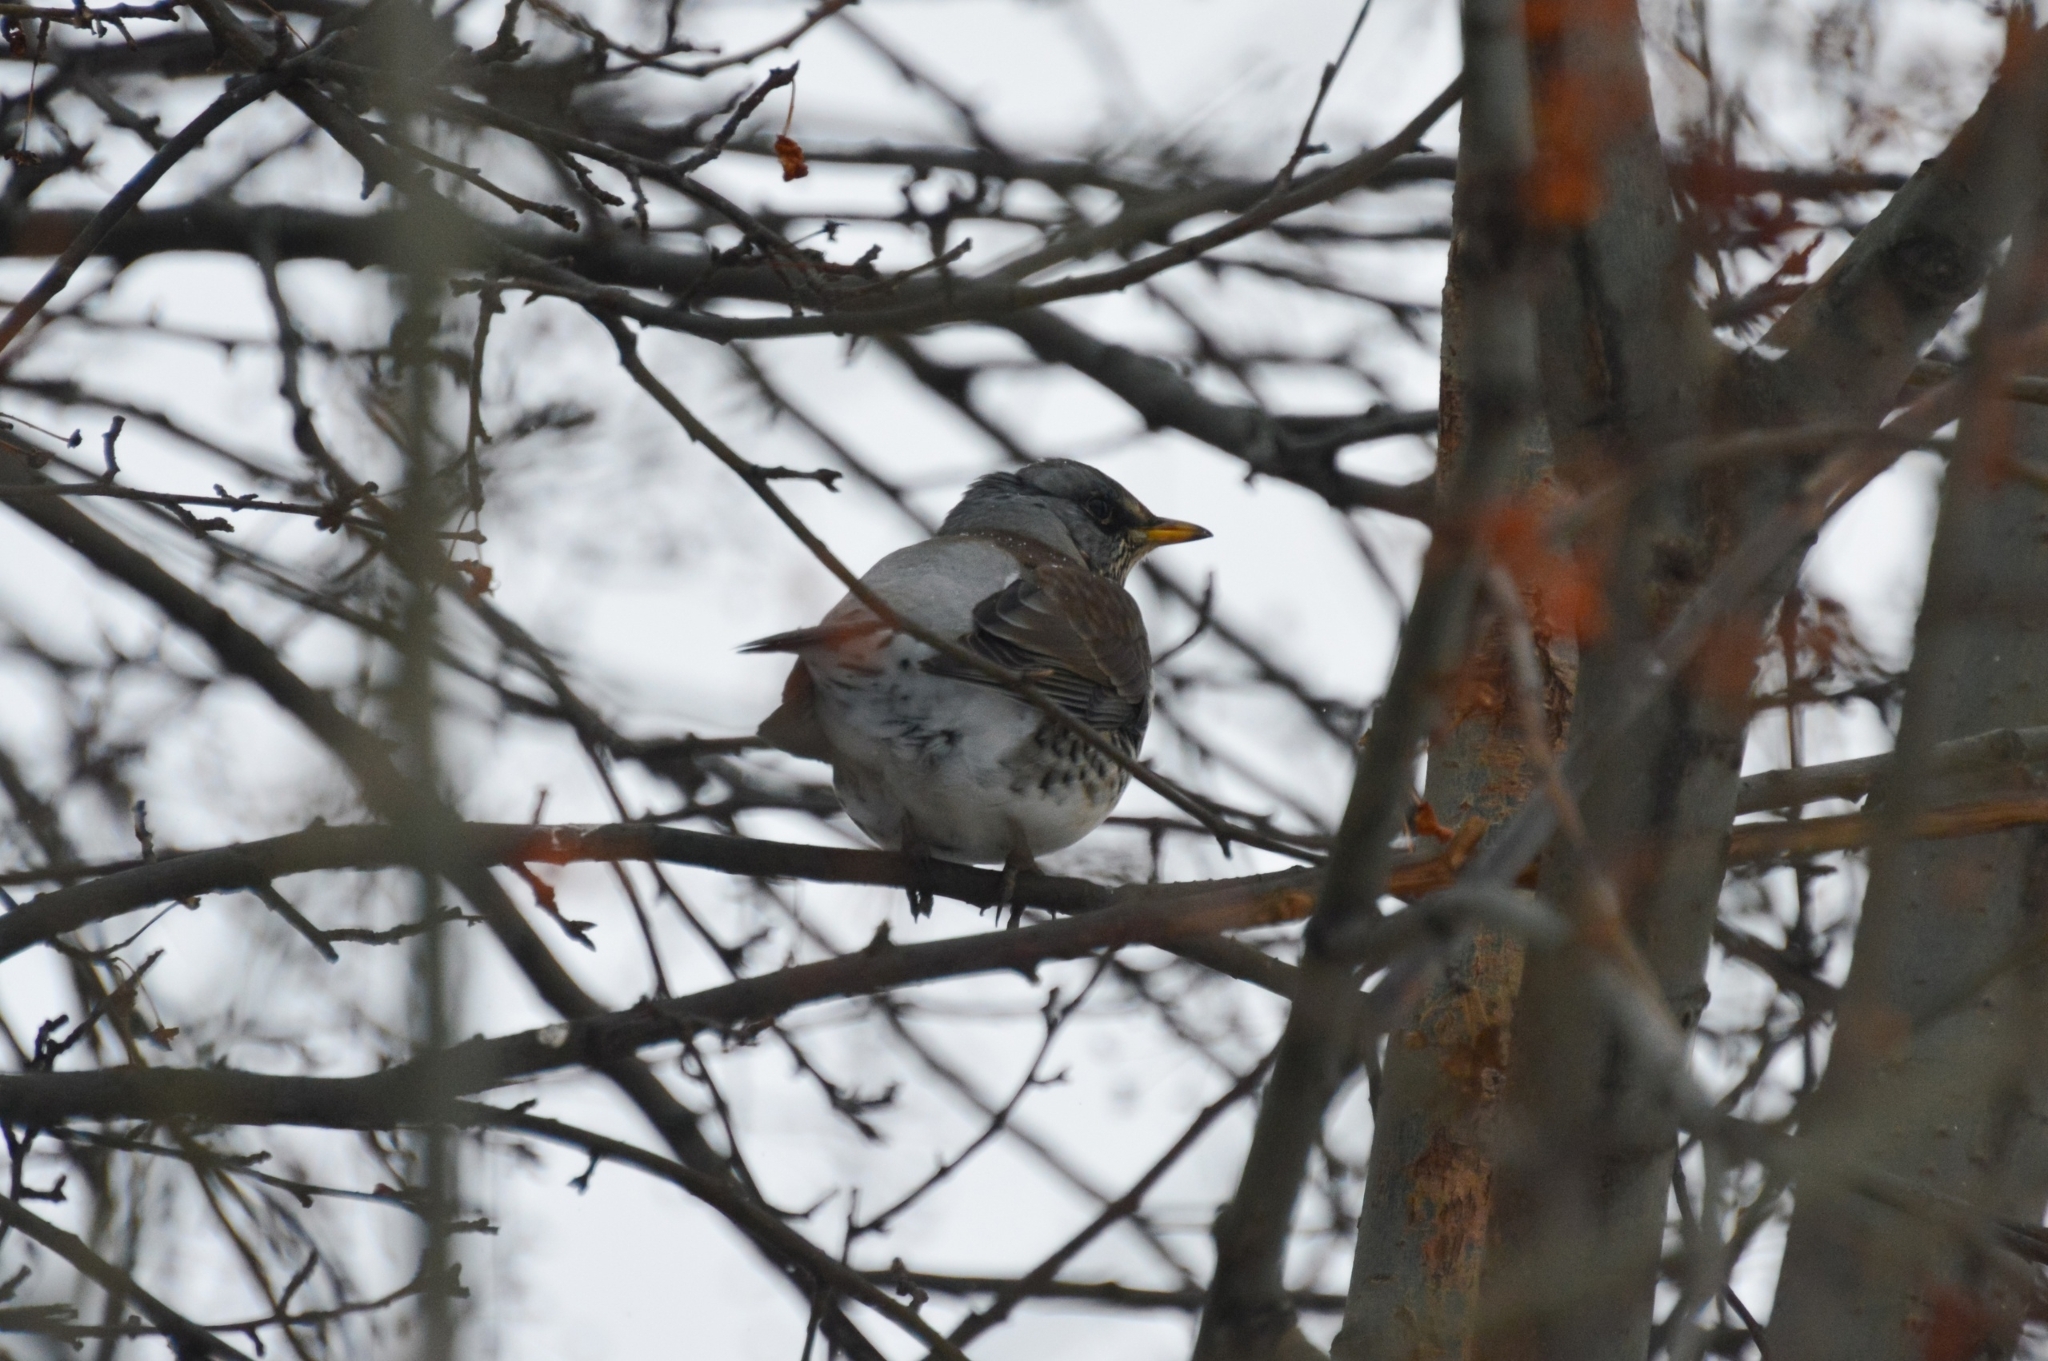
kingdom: Animalia
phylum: Chordata
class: Aves
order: Passeriformes
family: Turdidae
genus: Turdus
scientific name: Turdus pilaris
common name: Fieldfare
